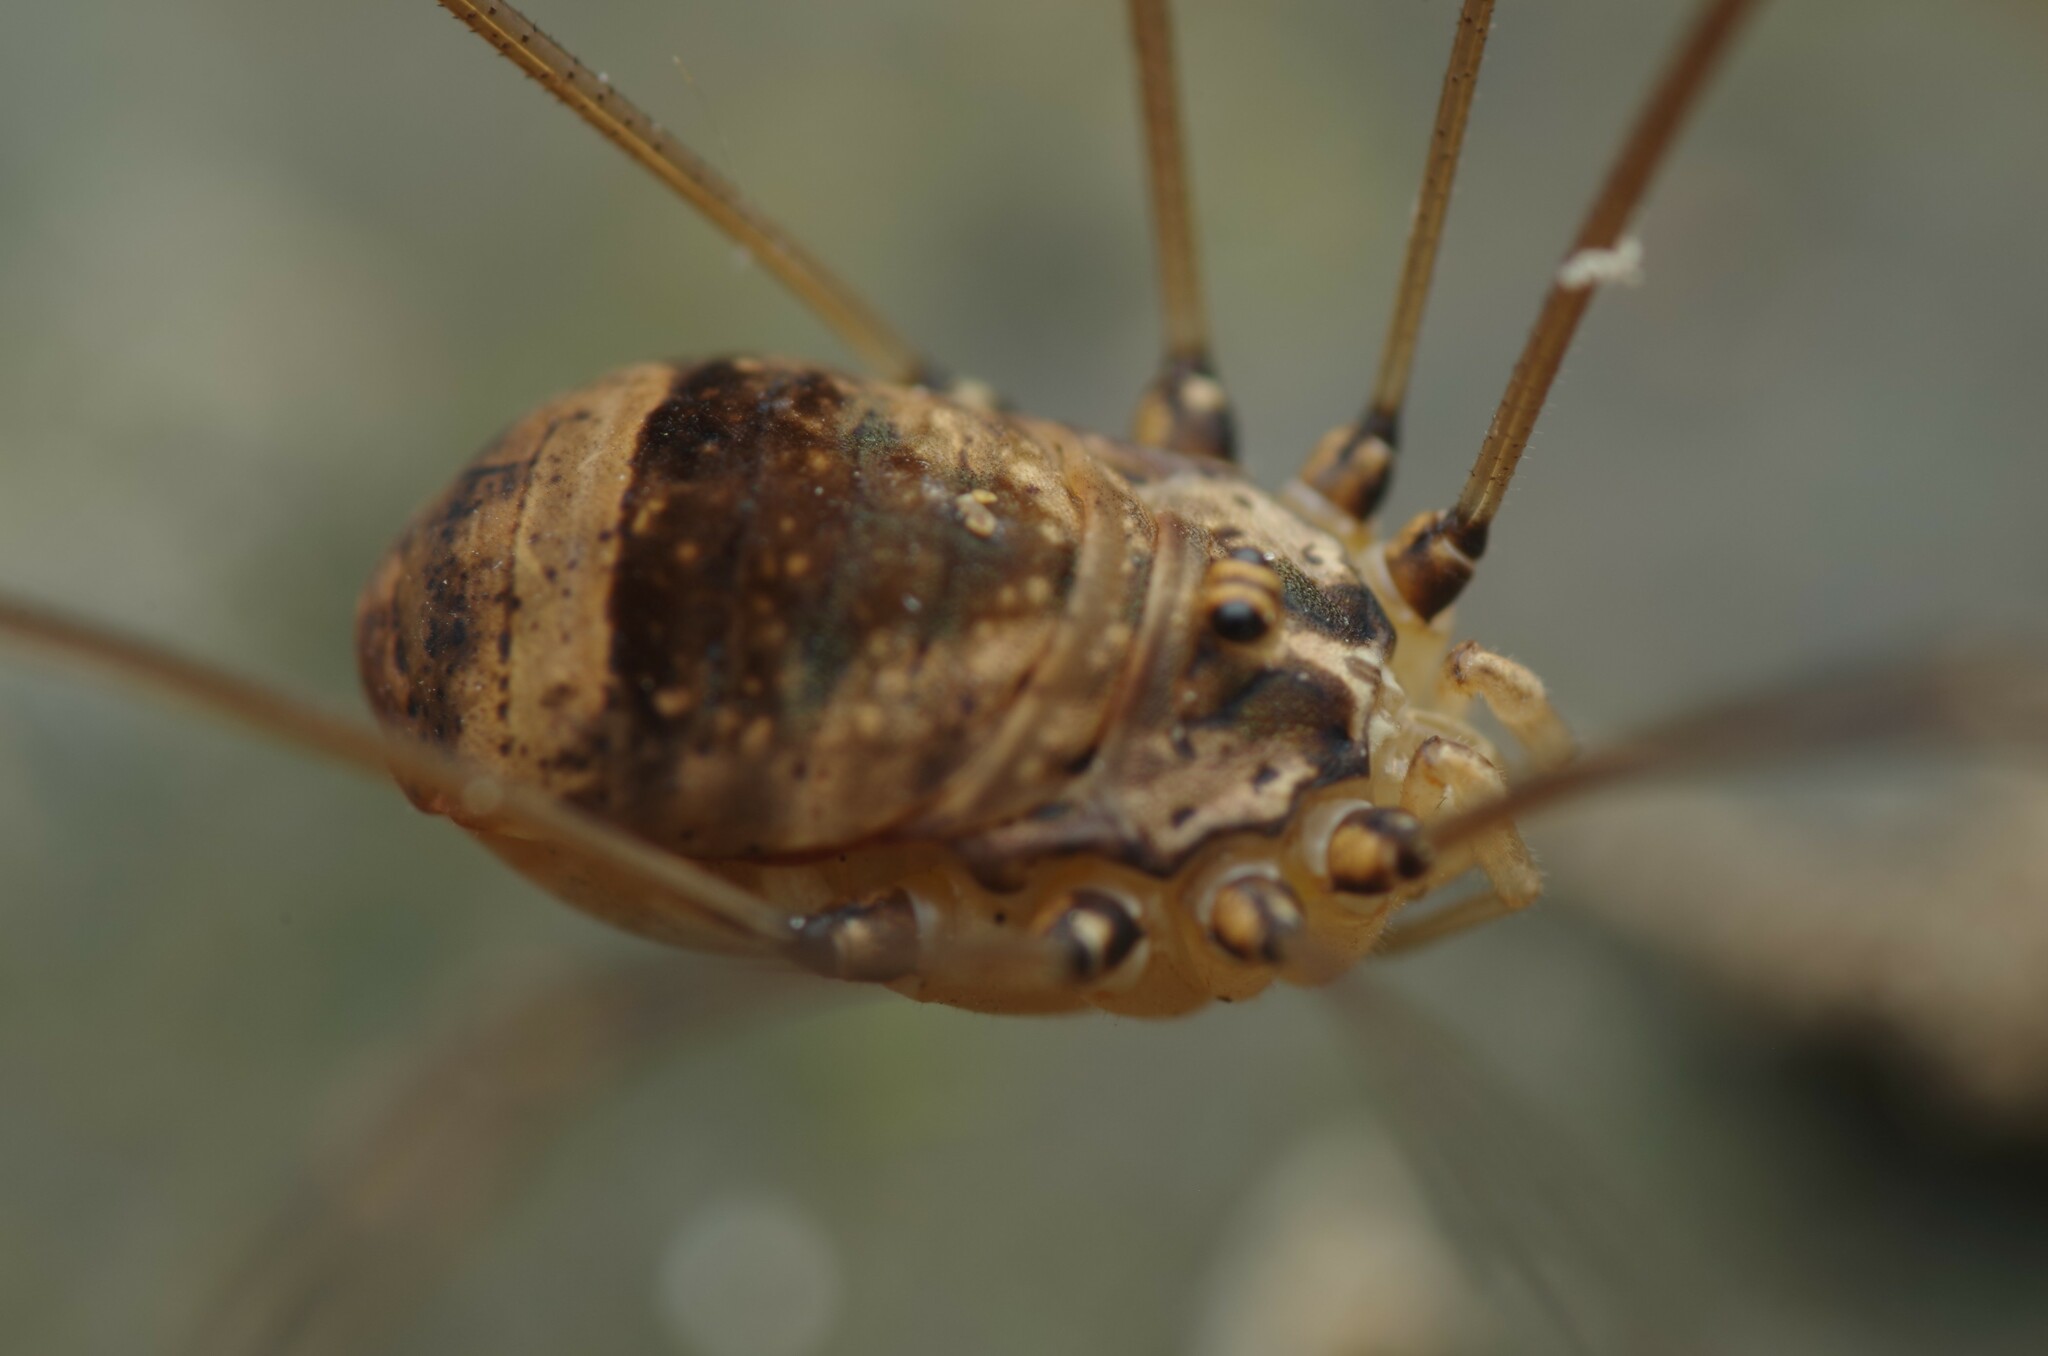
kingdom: Animalia
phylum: Arthropoda
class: Arachnida
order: Opiliones
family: Sclerosomatidae
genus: Leiobunum
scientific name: Leiobunum blackwalli
